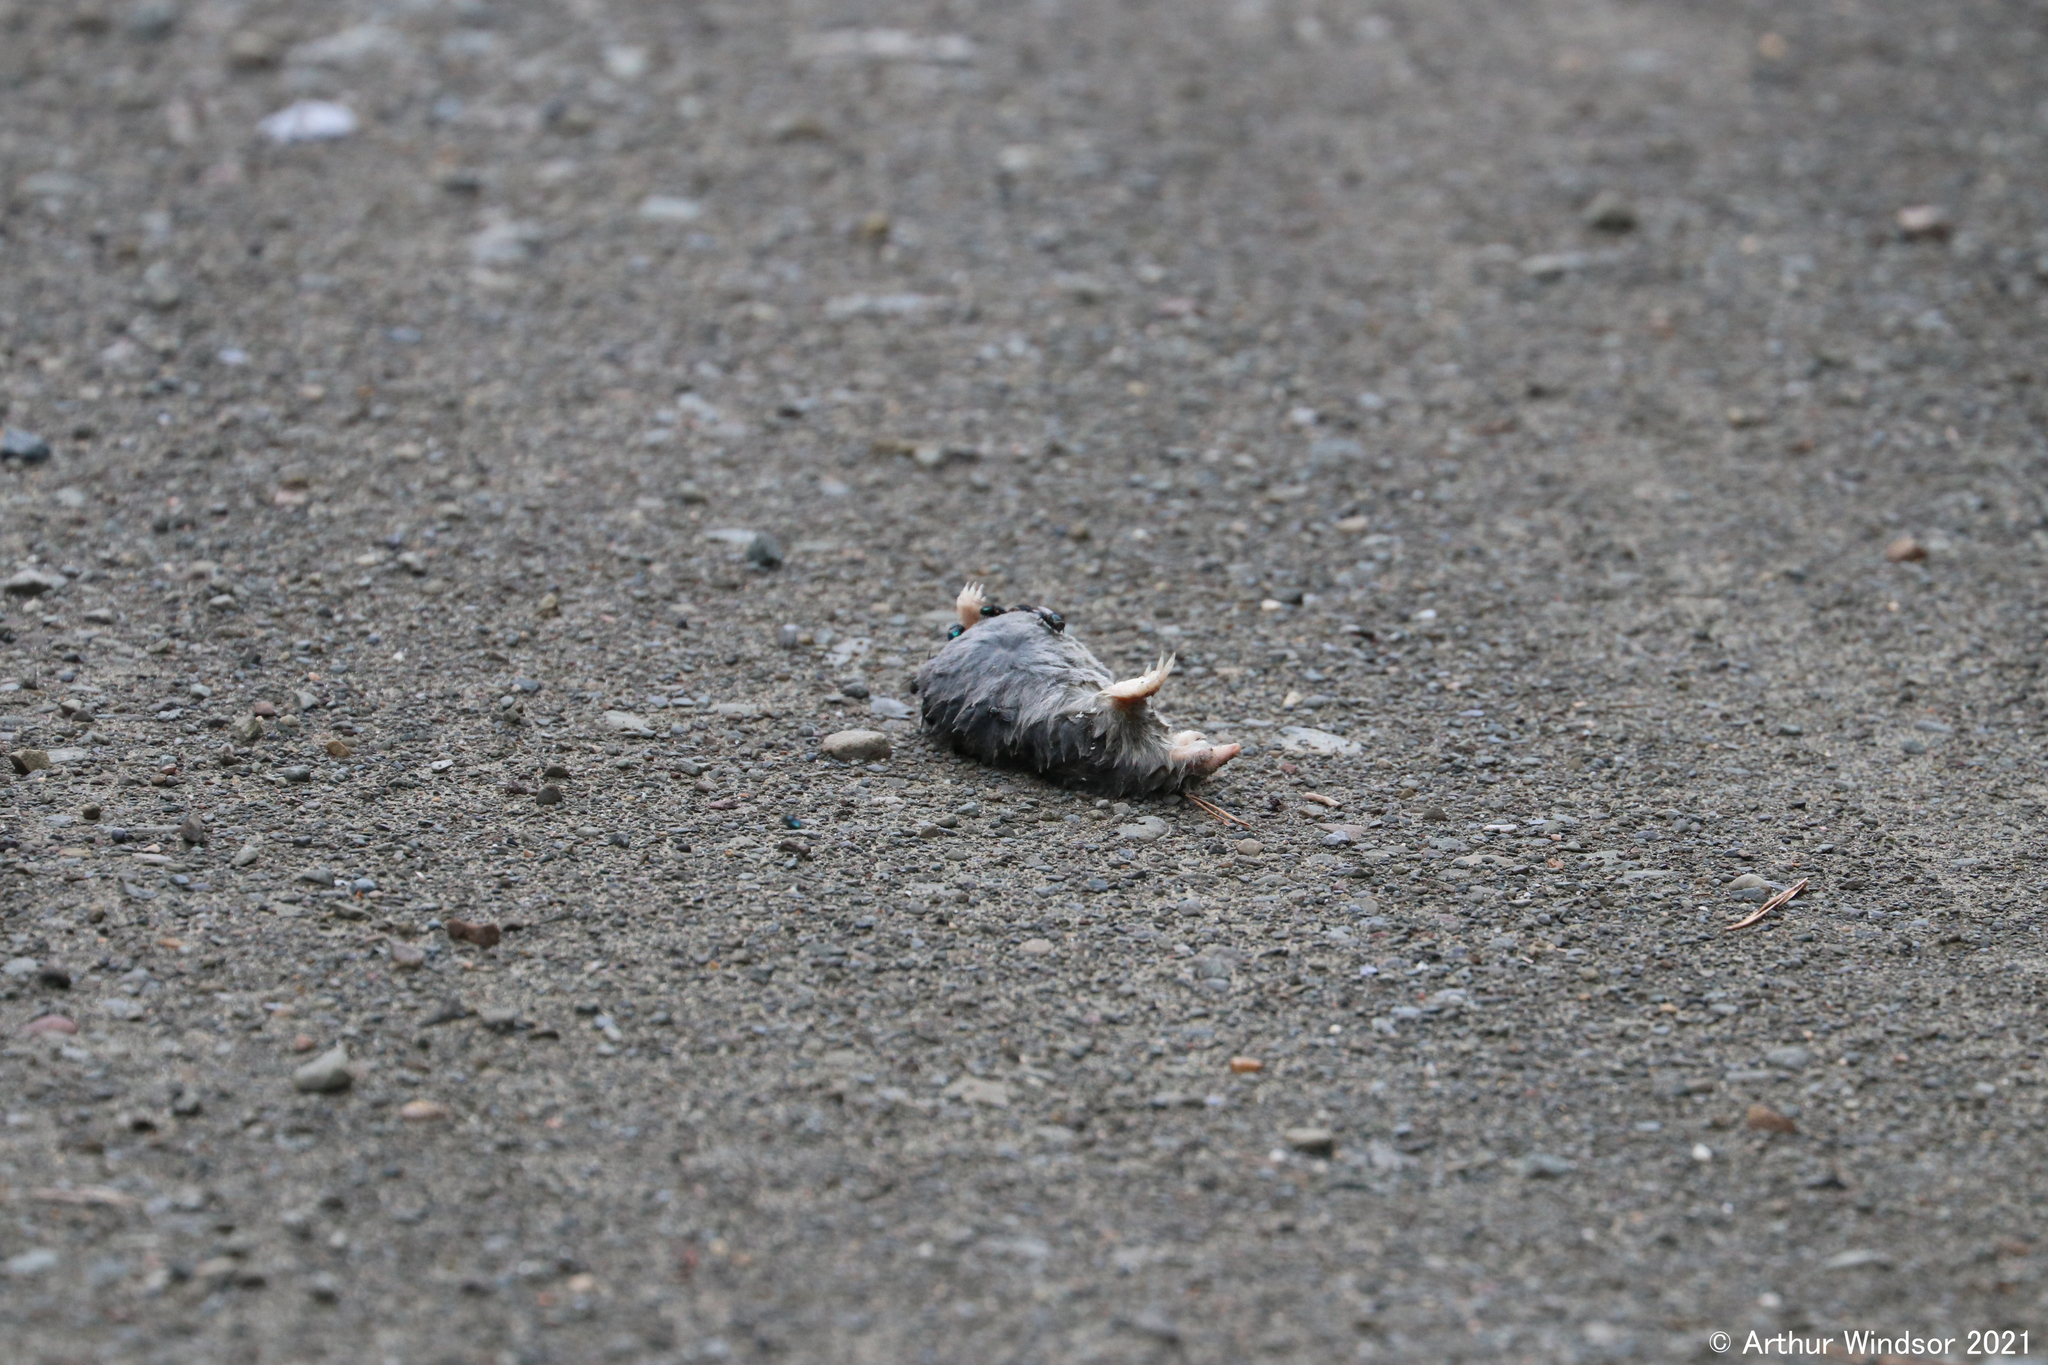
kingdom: Animalia
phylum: Chordata
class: Mammalia
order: Soricomorpha
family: Talpidae
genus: Parascalops
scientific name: Parascalops breweri
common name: Hairy-tailed mole
